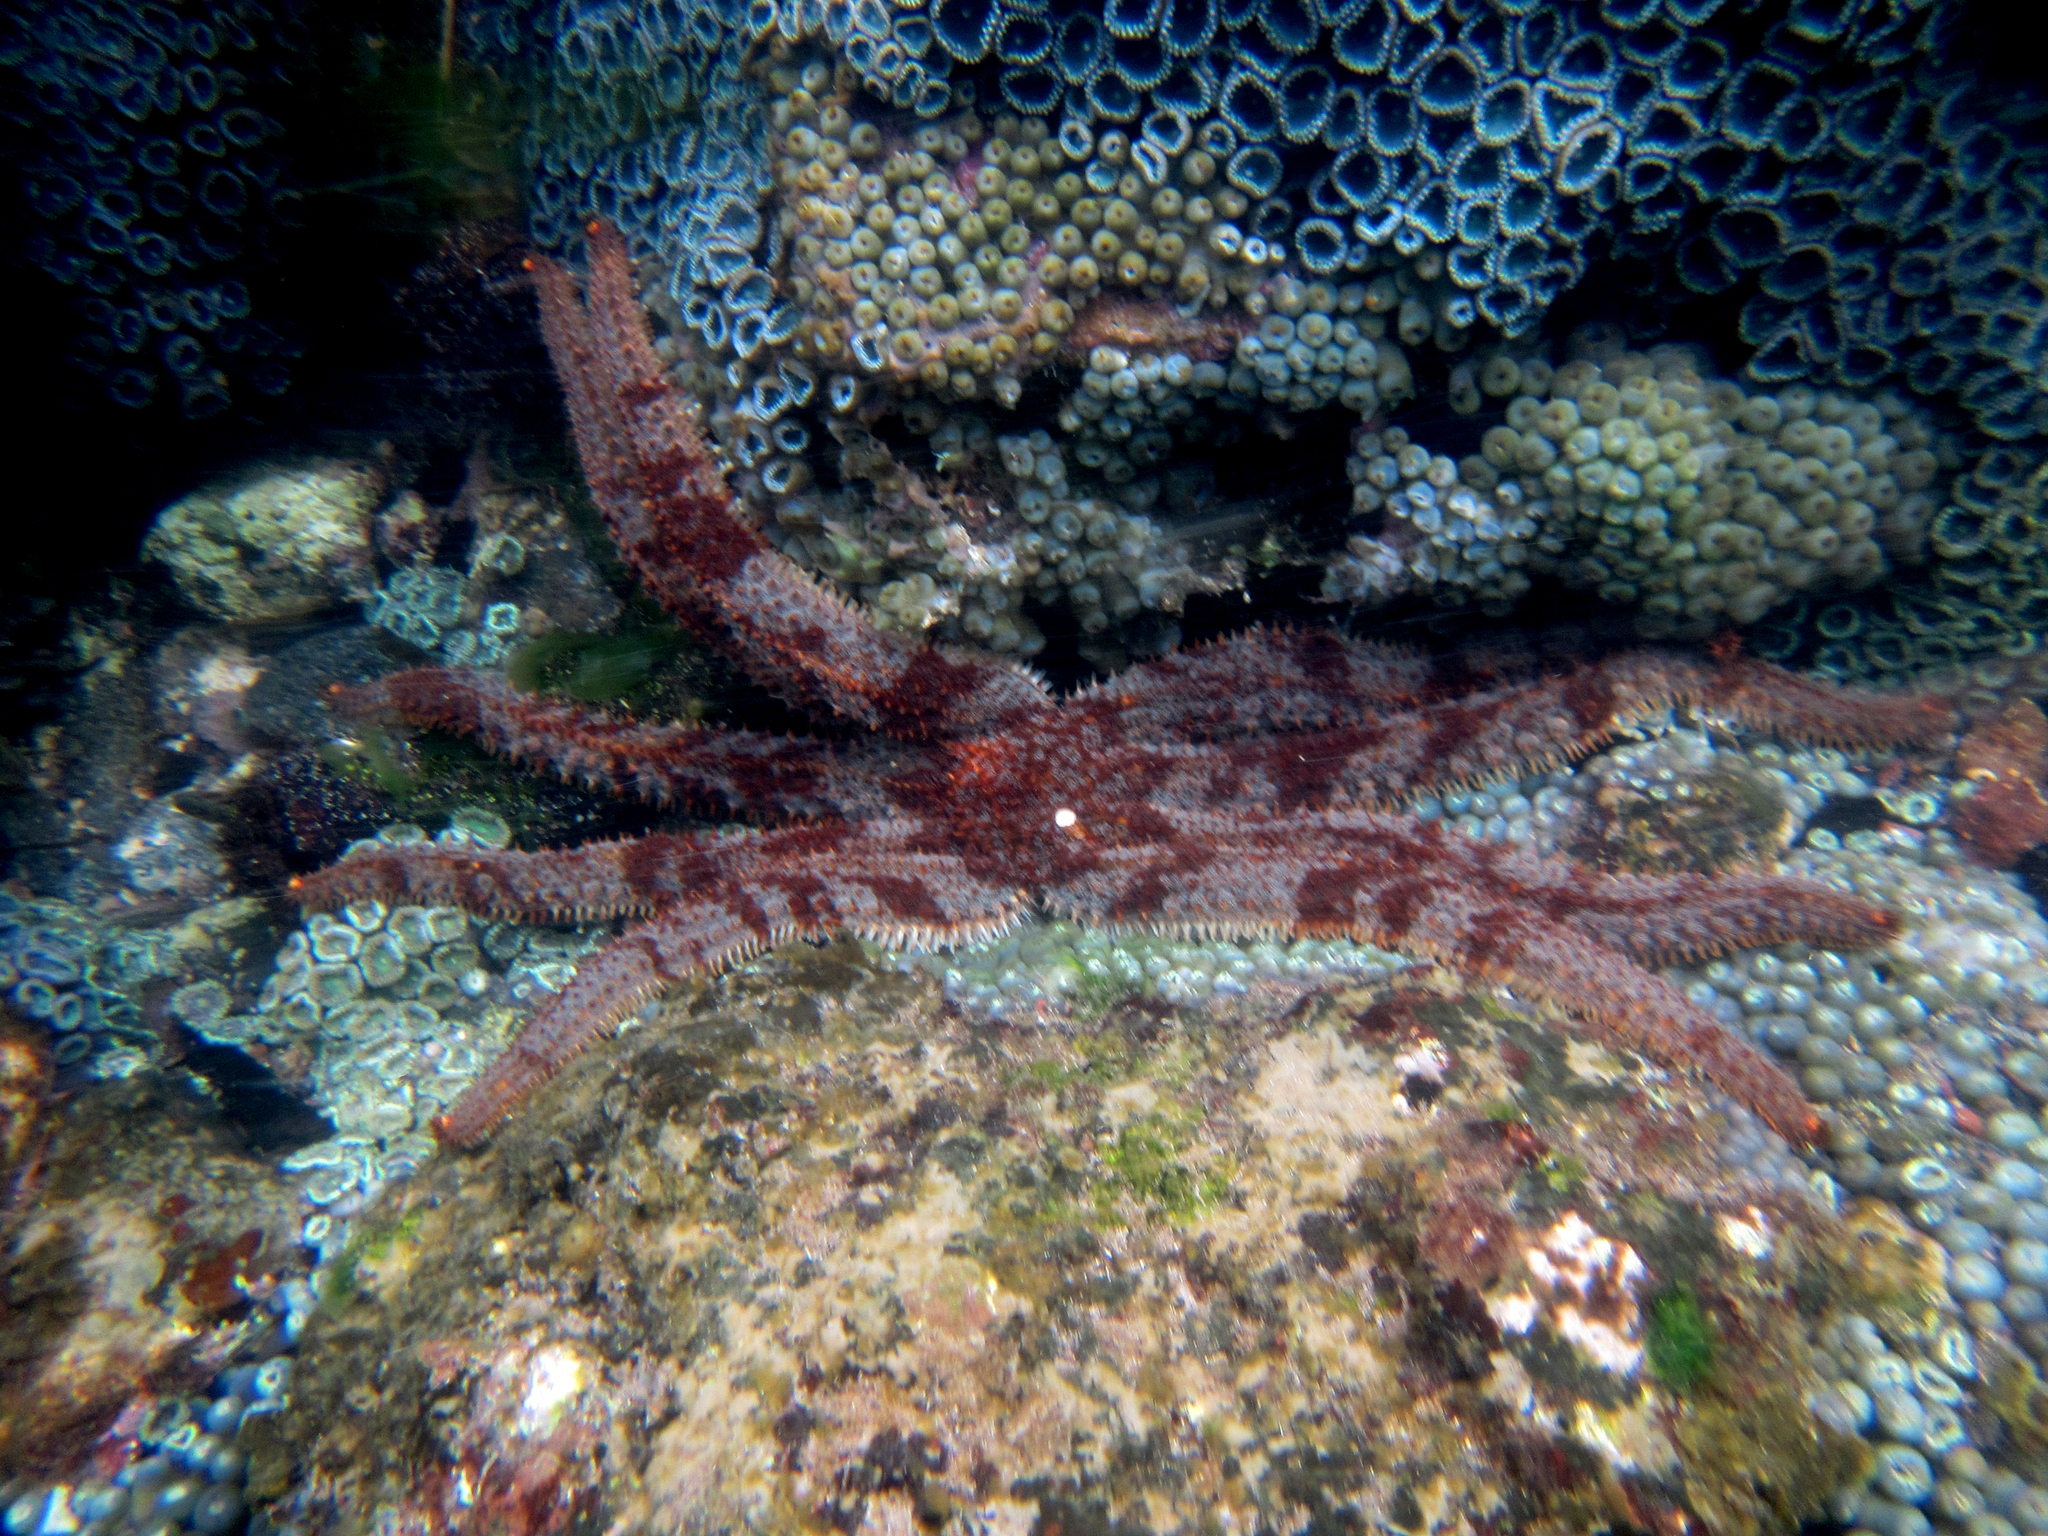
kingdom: Animalia
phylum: Echinodermata
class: Asteroidea
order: Forcipulatida
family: Asteriidae
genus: Astrostole
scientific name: Astrostole platei
